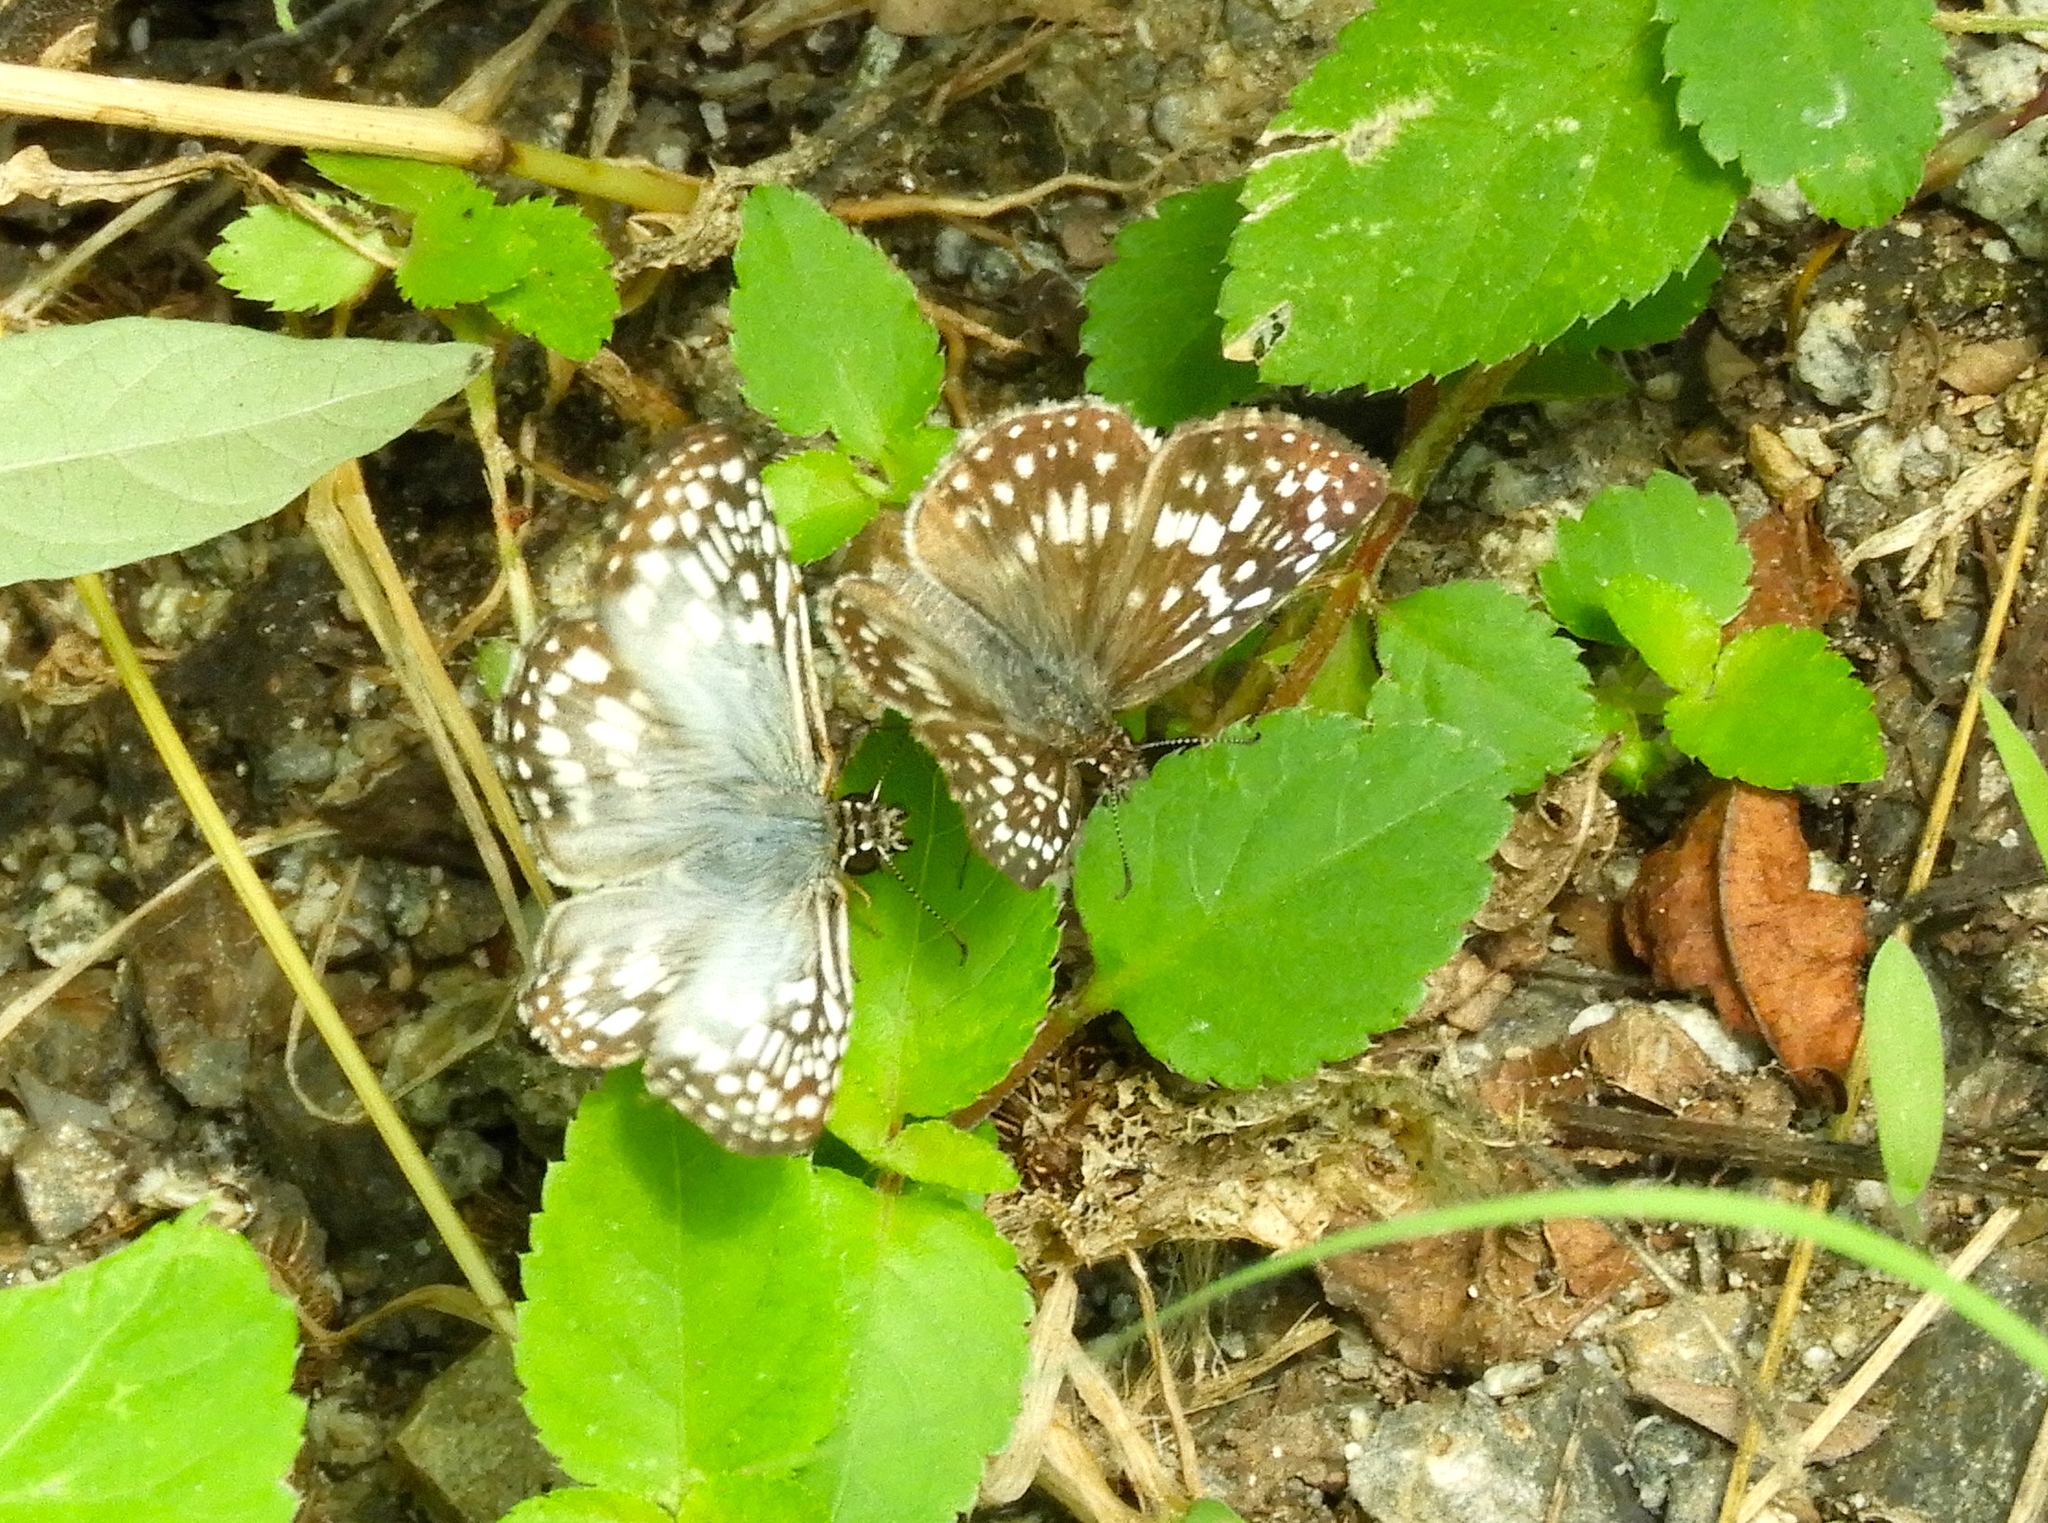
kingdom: Animalia
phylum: Arthropoda
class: Insecta
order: Lepidoptera
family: Hesperiidae
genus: Burnsius
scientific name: Burnsius
